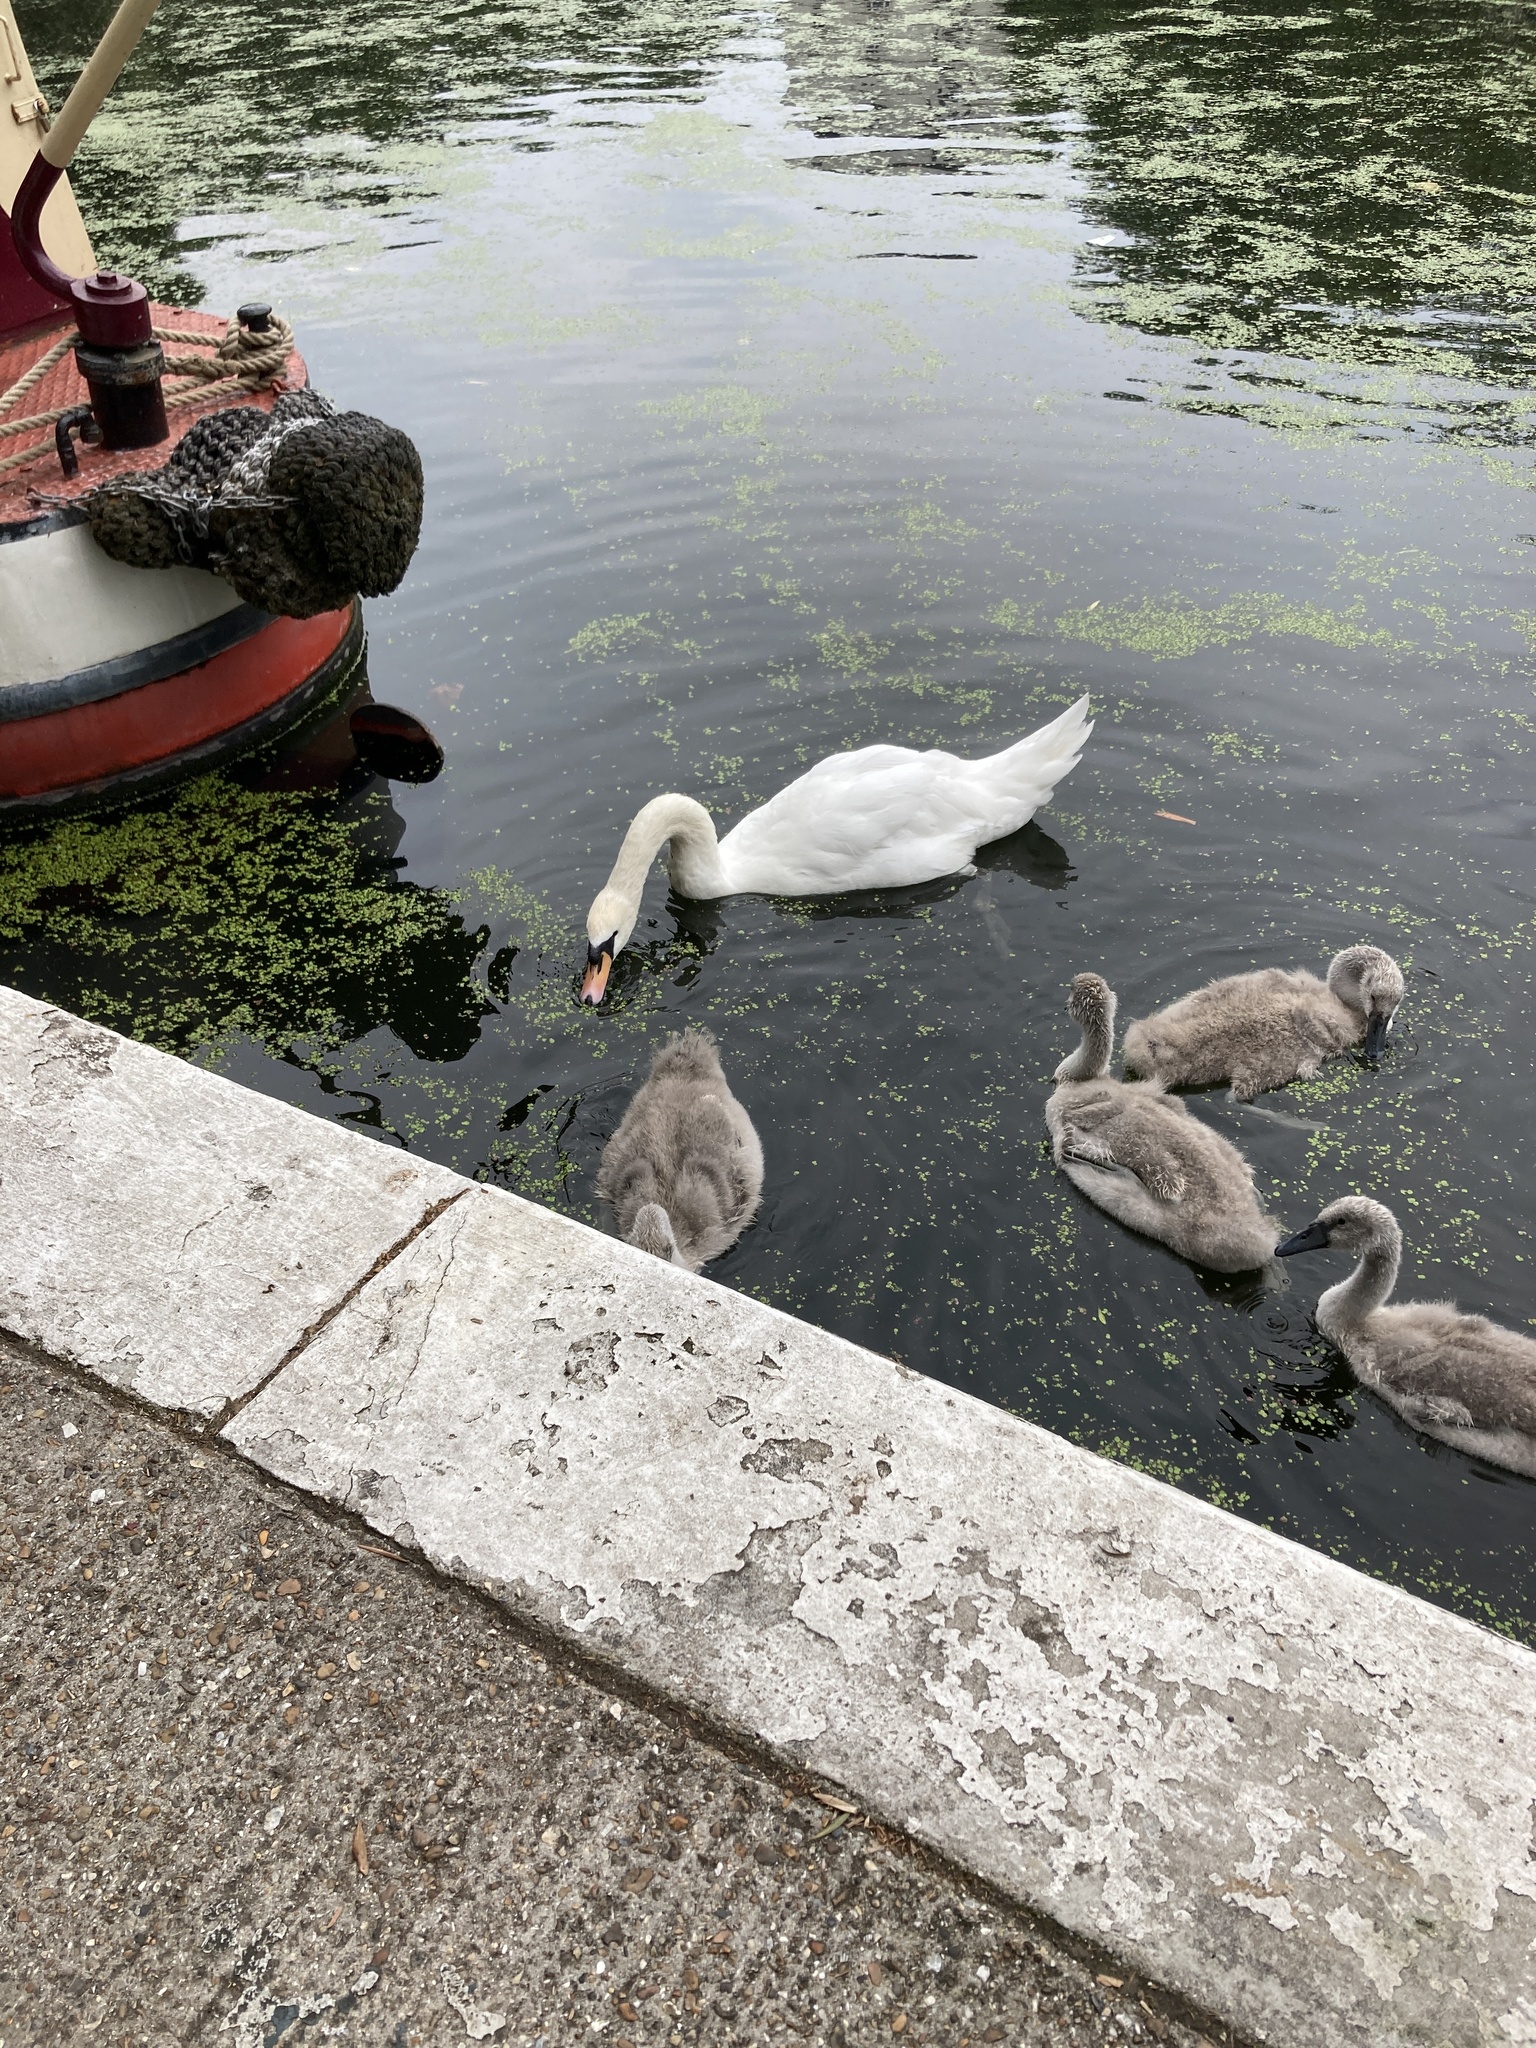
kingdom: Animalia
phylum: Chordata
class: Aves
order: Anseriformes
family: Anatidae
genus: Cygnus
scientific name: Cygnus olor
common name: Mute swan
